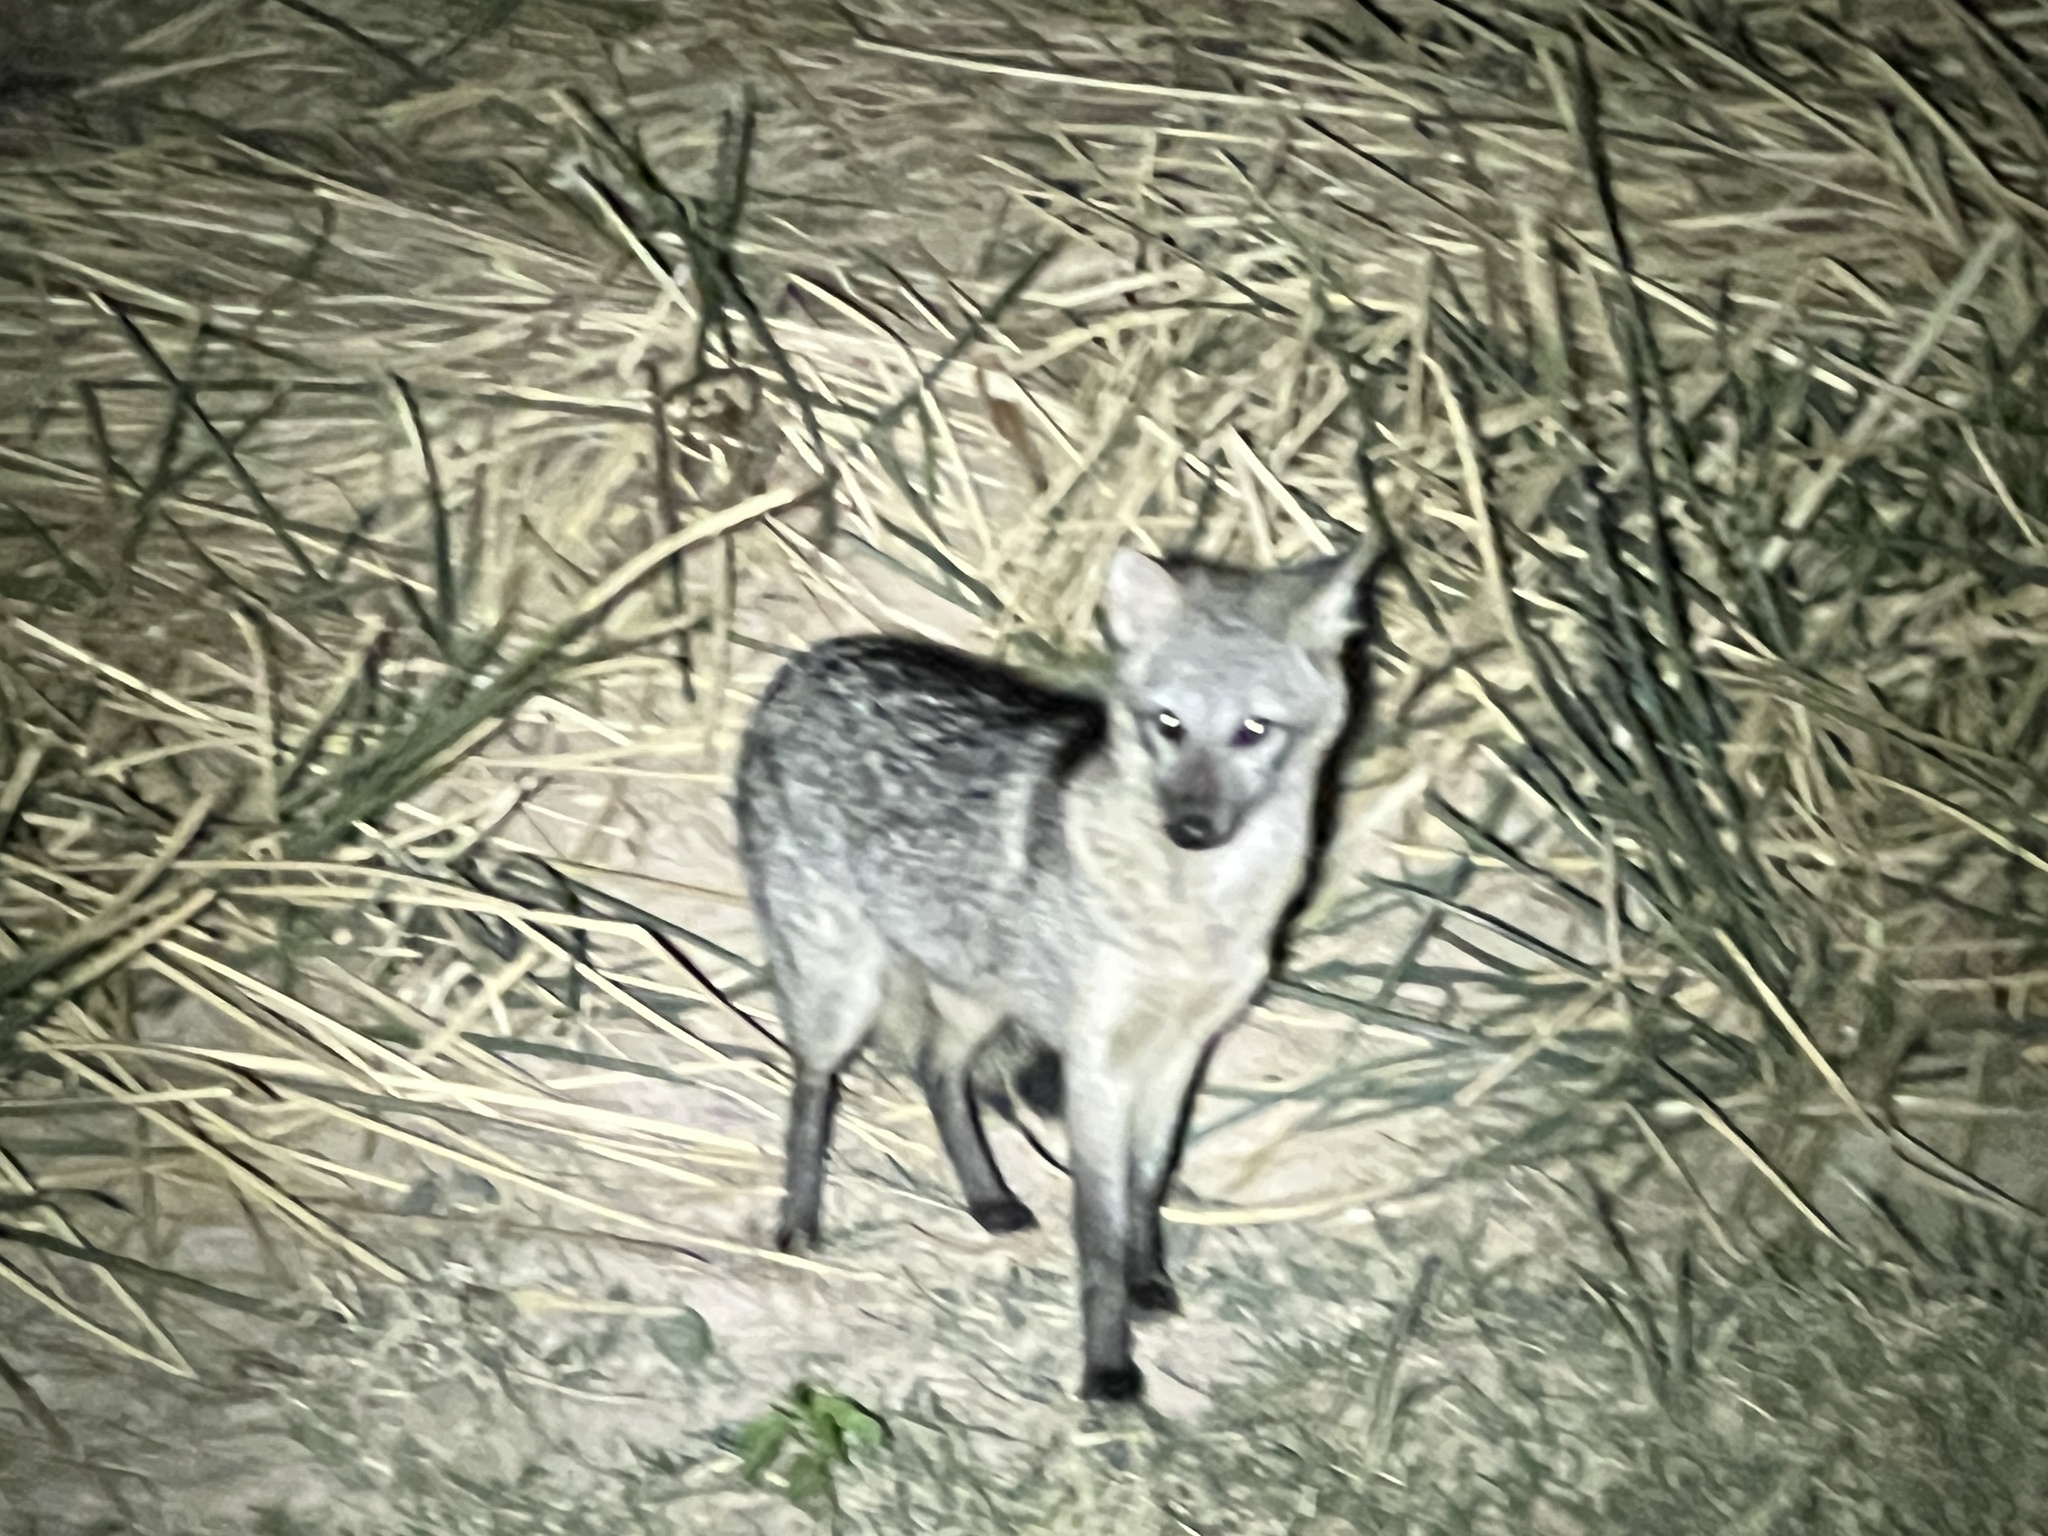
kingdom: Animalia
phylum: Chordata
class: Mammalia
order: Carnivora
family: Canidae
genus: Cerdocyon
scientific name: Cerdocyon thous
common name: Crab-eating fox
